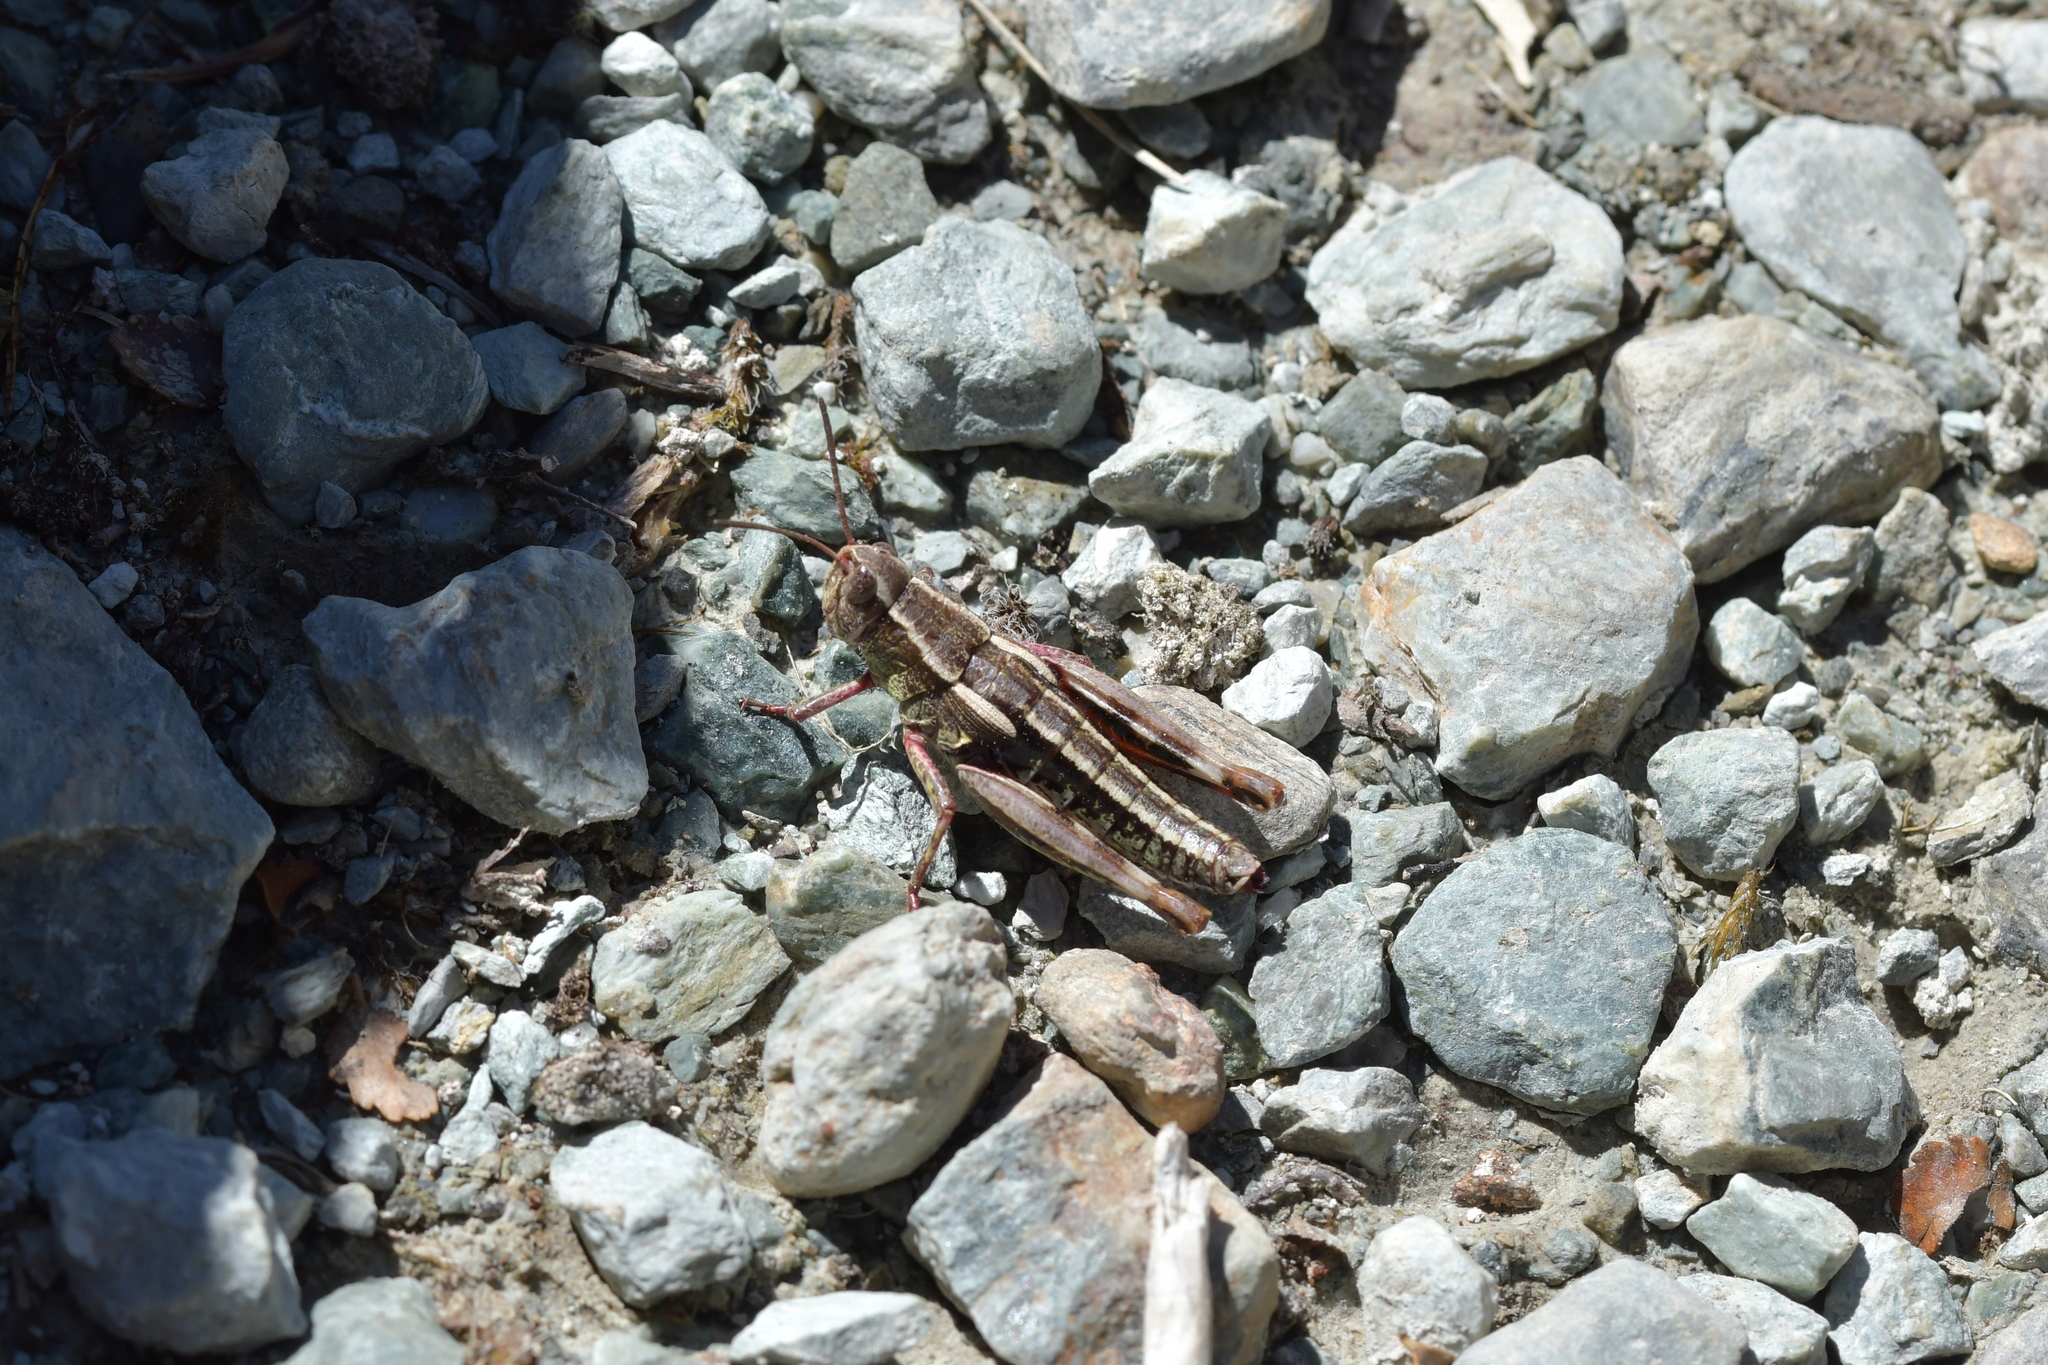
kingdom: Animalia
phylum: Arthropoda
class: Insecta
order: Orthoptera
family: Acrididae
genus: Sigaus
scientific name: Sigaus australis
